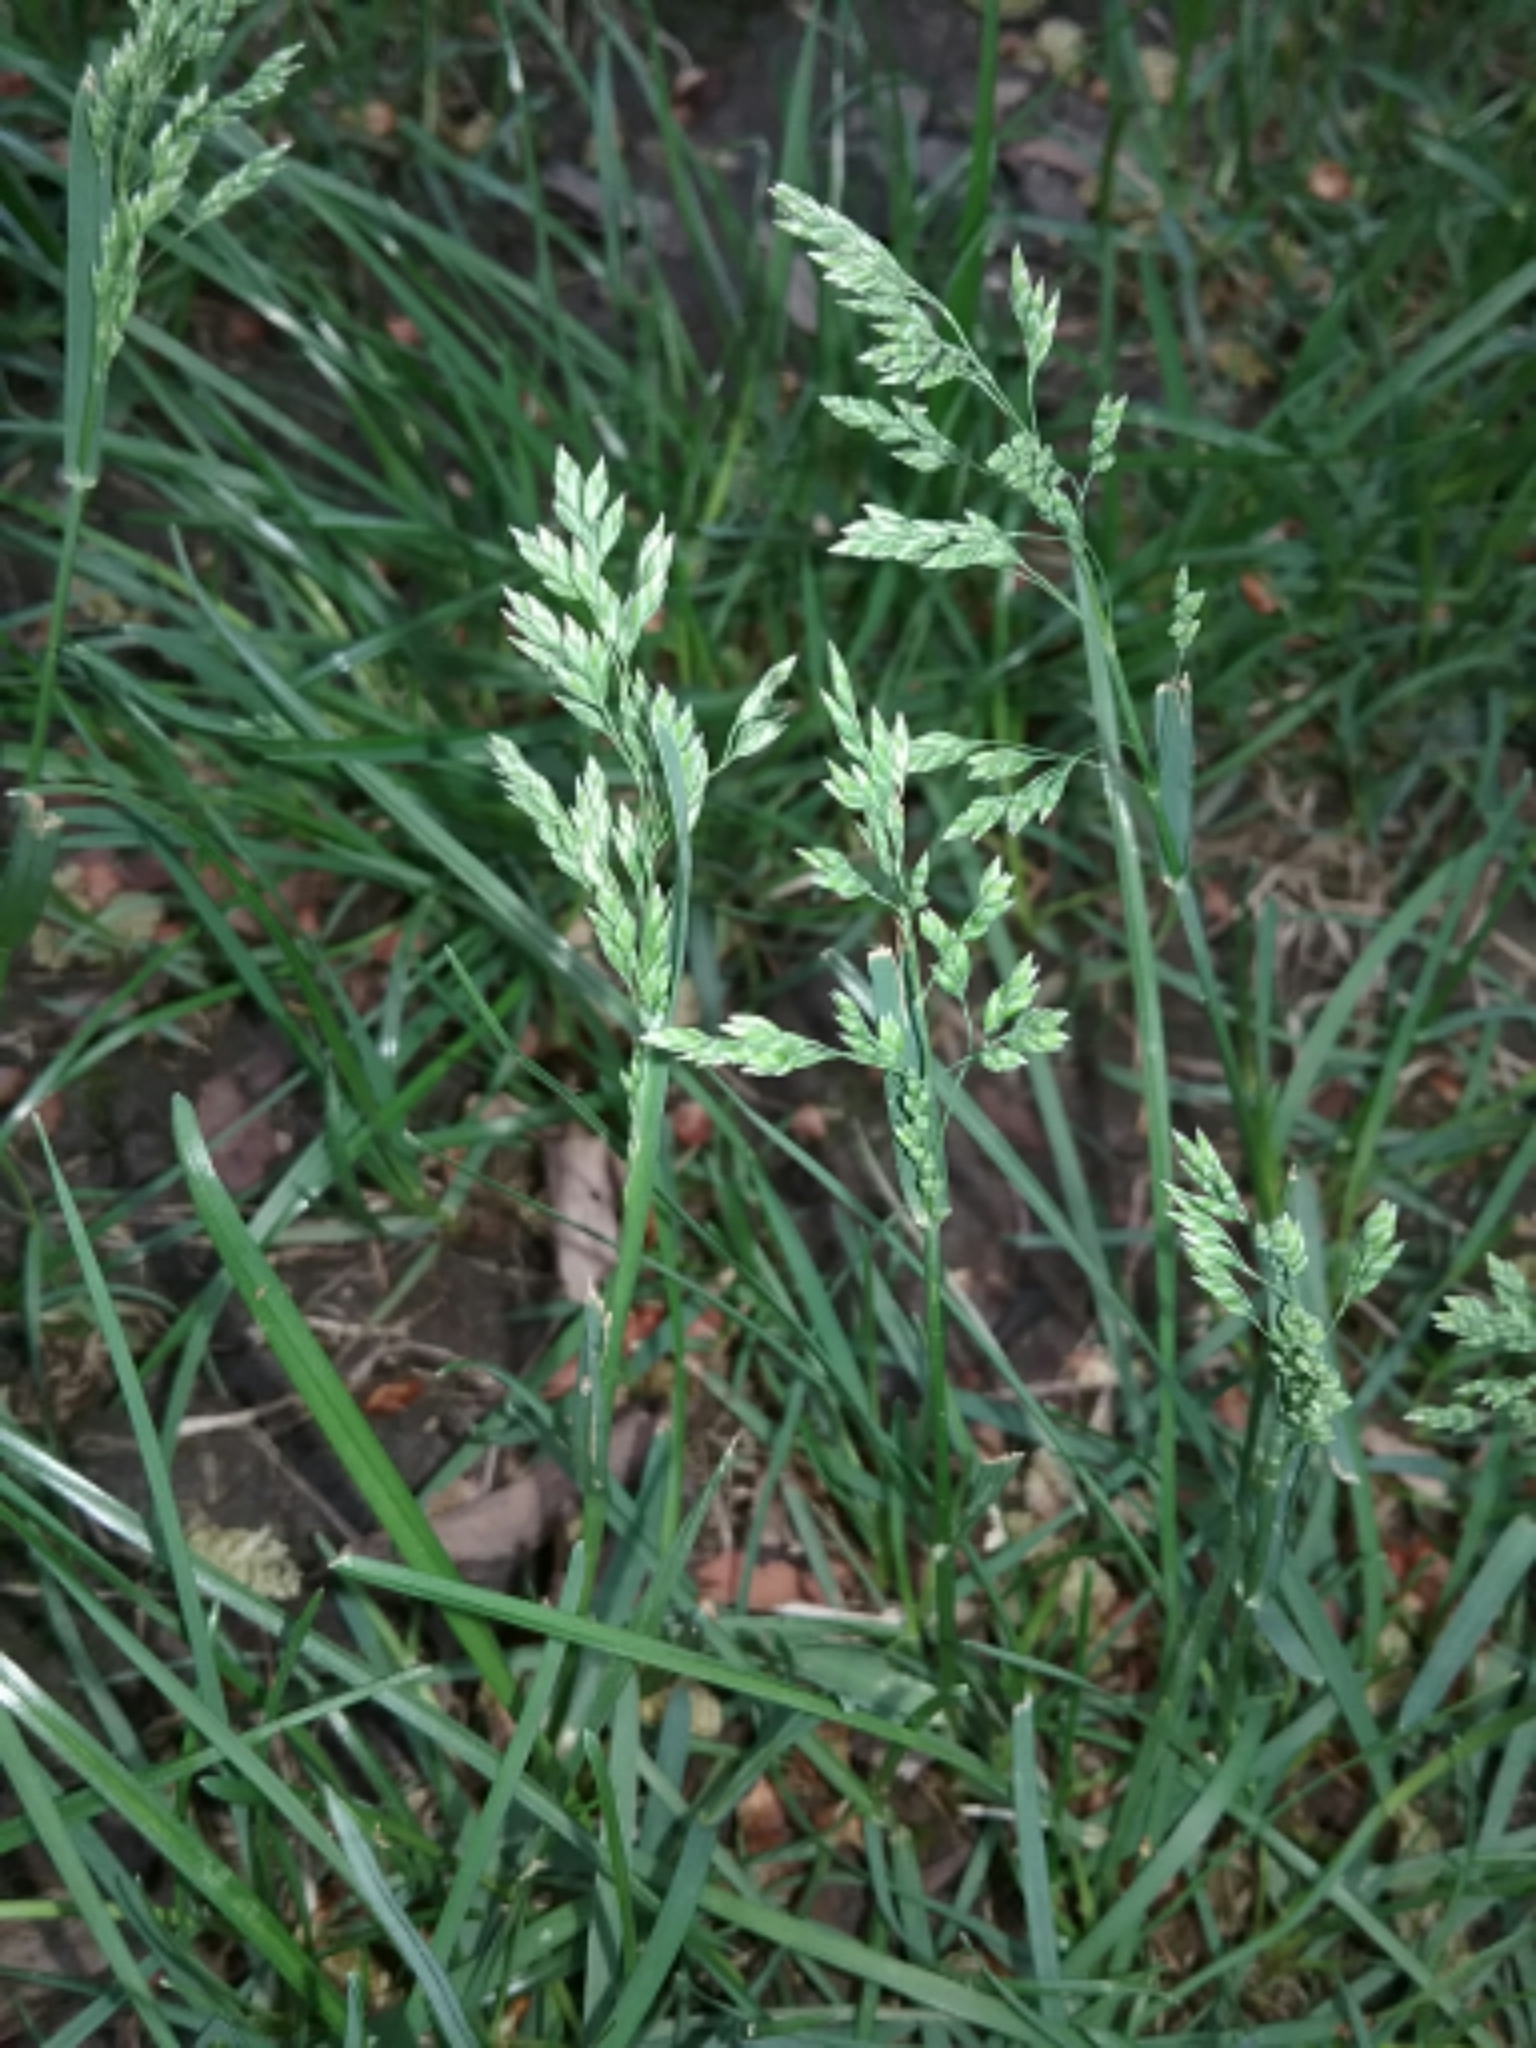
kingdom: Plantae
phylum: Tracheophyta
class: Liliopsida
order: Poales
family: Poaceae
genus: Poa
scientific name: Poa annua
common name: Annual bluegrass
